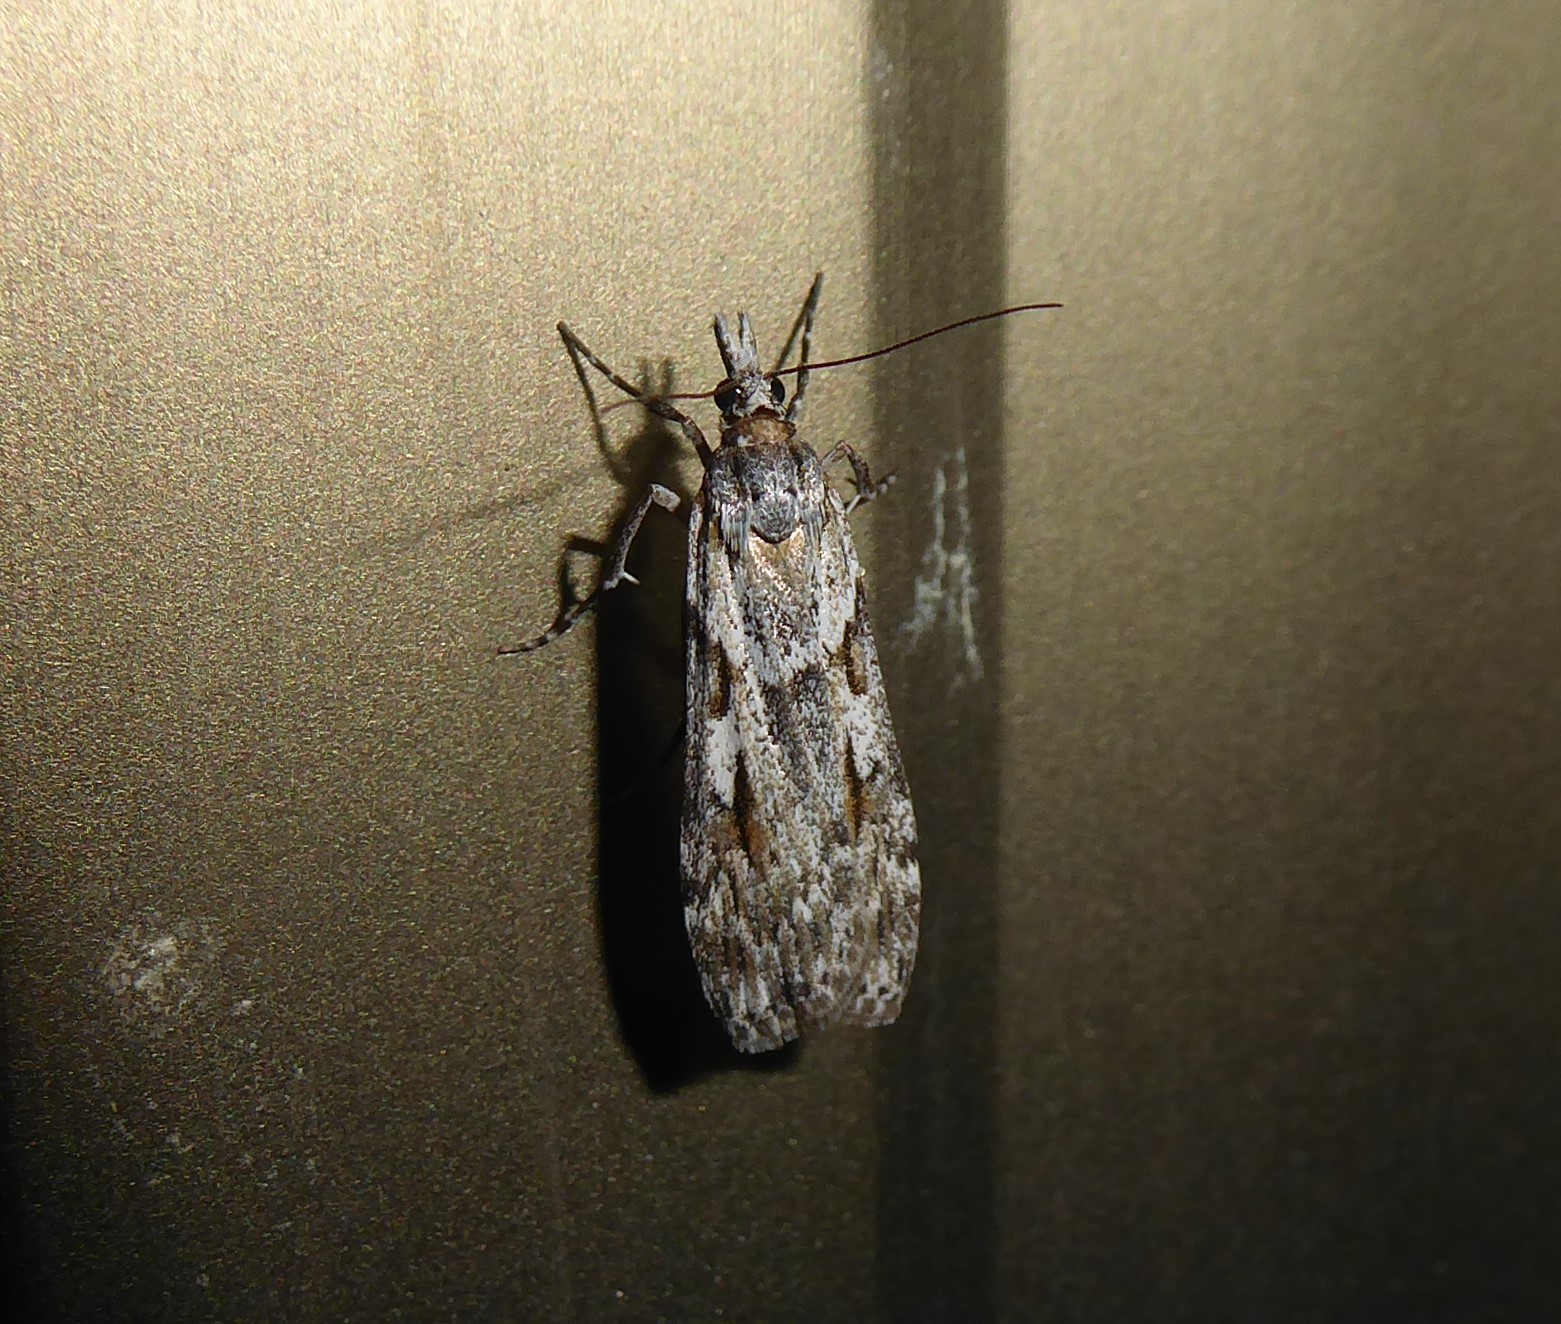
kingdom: Animalia
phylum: Arthropoda
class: Insecta
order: Lepidoptera
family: Crambidae
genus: Scoparia
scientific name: Scoparia halopis
